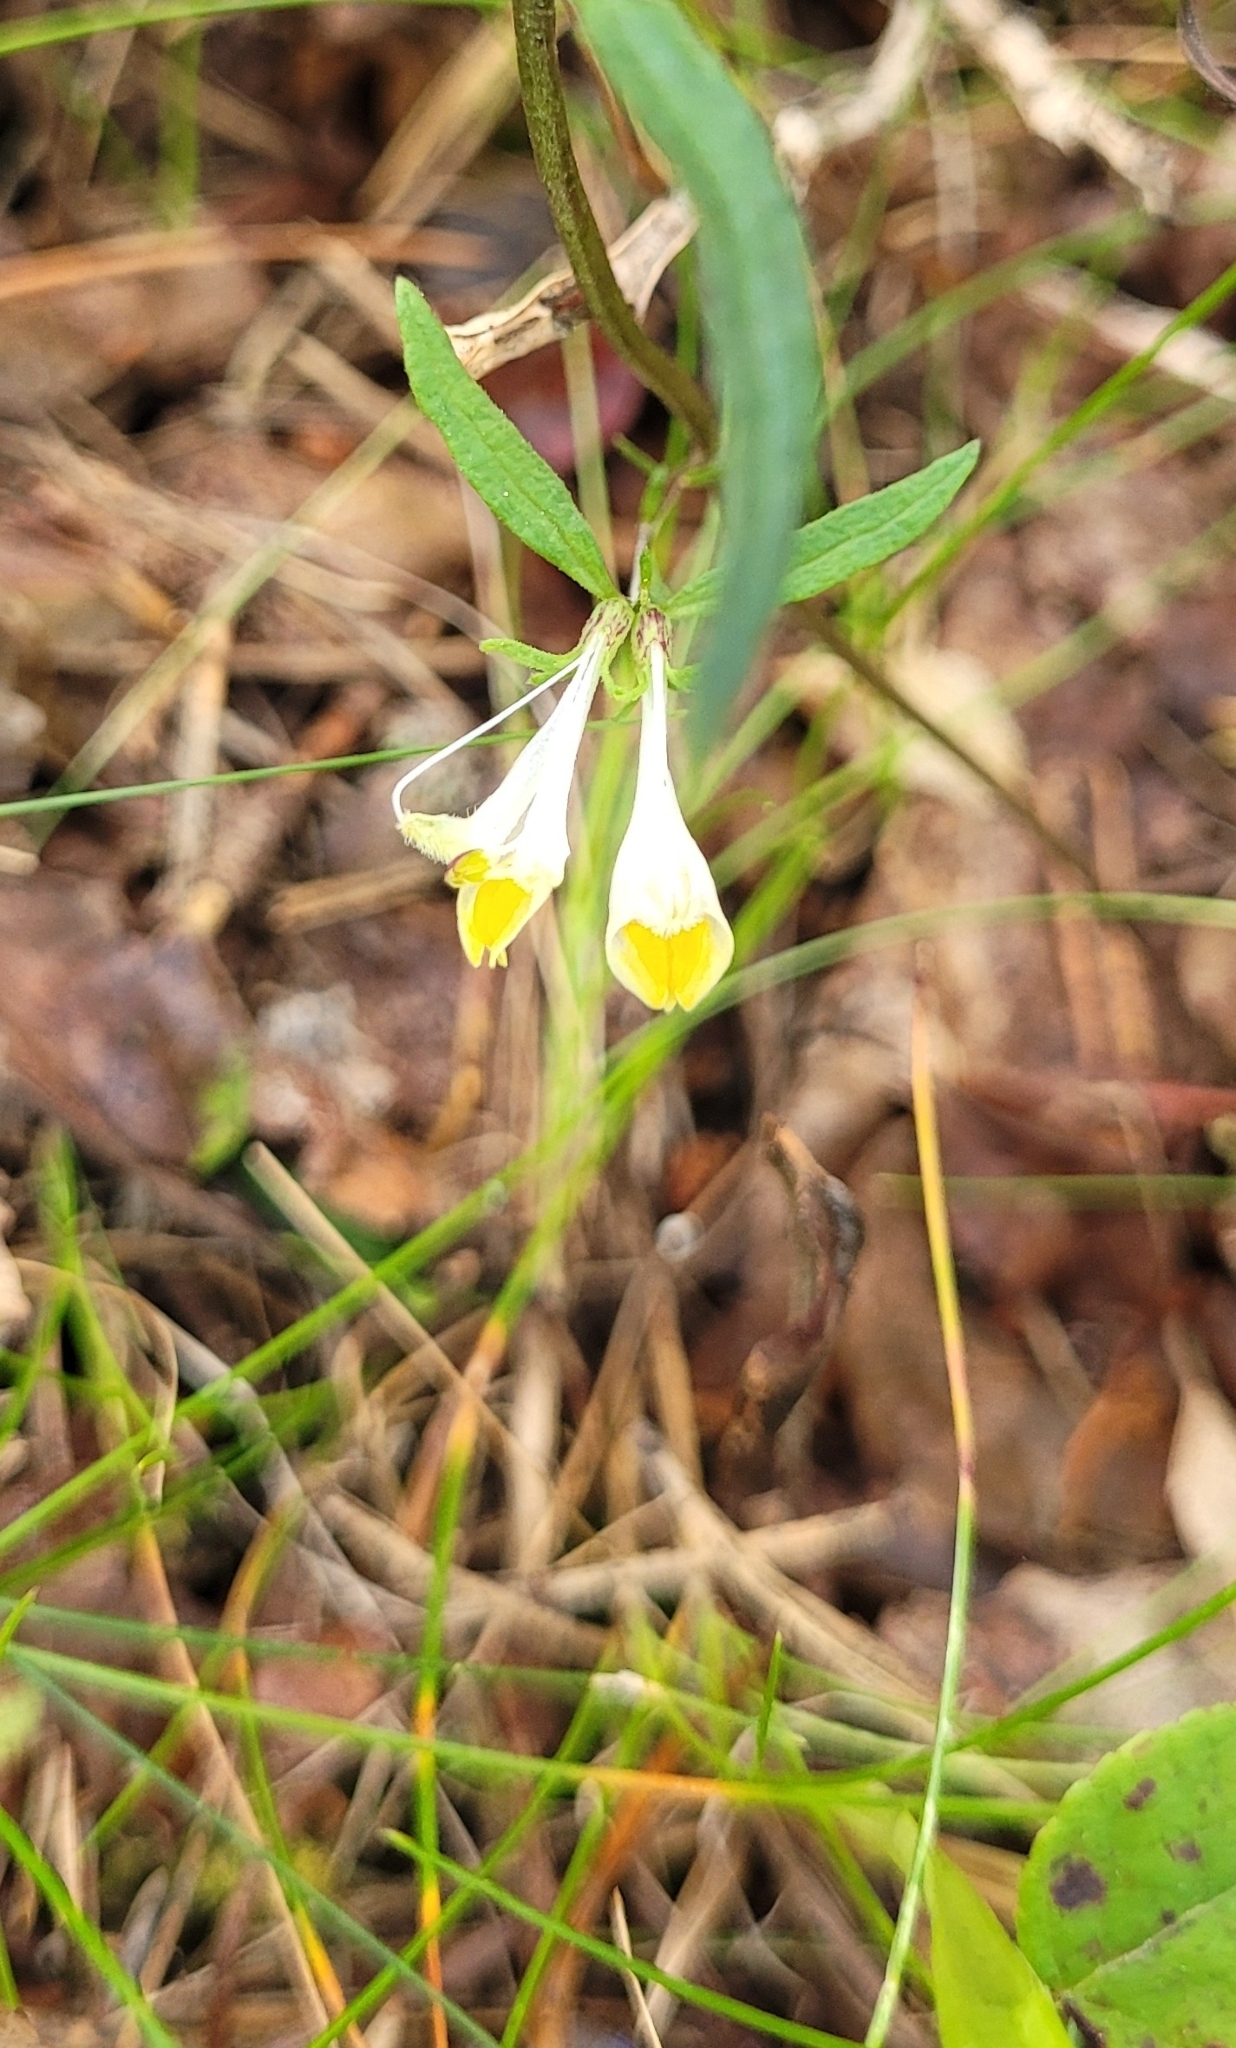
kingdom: Plantae
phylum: Tracheophyta
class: Magnoliopsida
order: Lamiales
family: Orobanchaceae
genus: Melampyrum
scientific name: Melampyrum pratense
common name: Common cow-wheat
